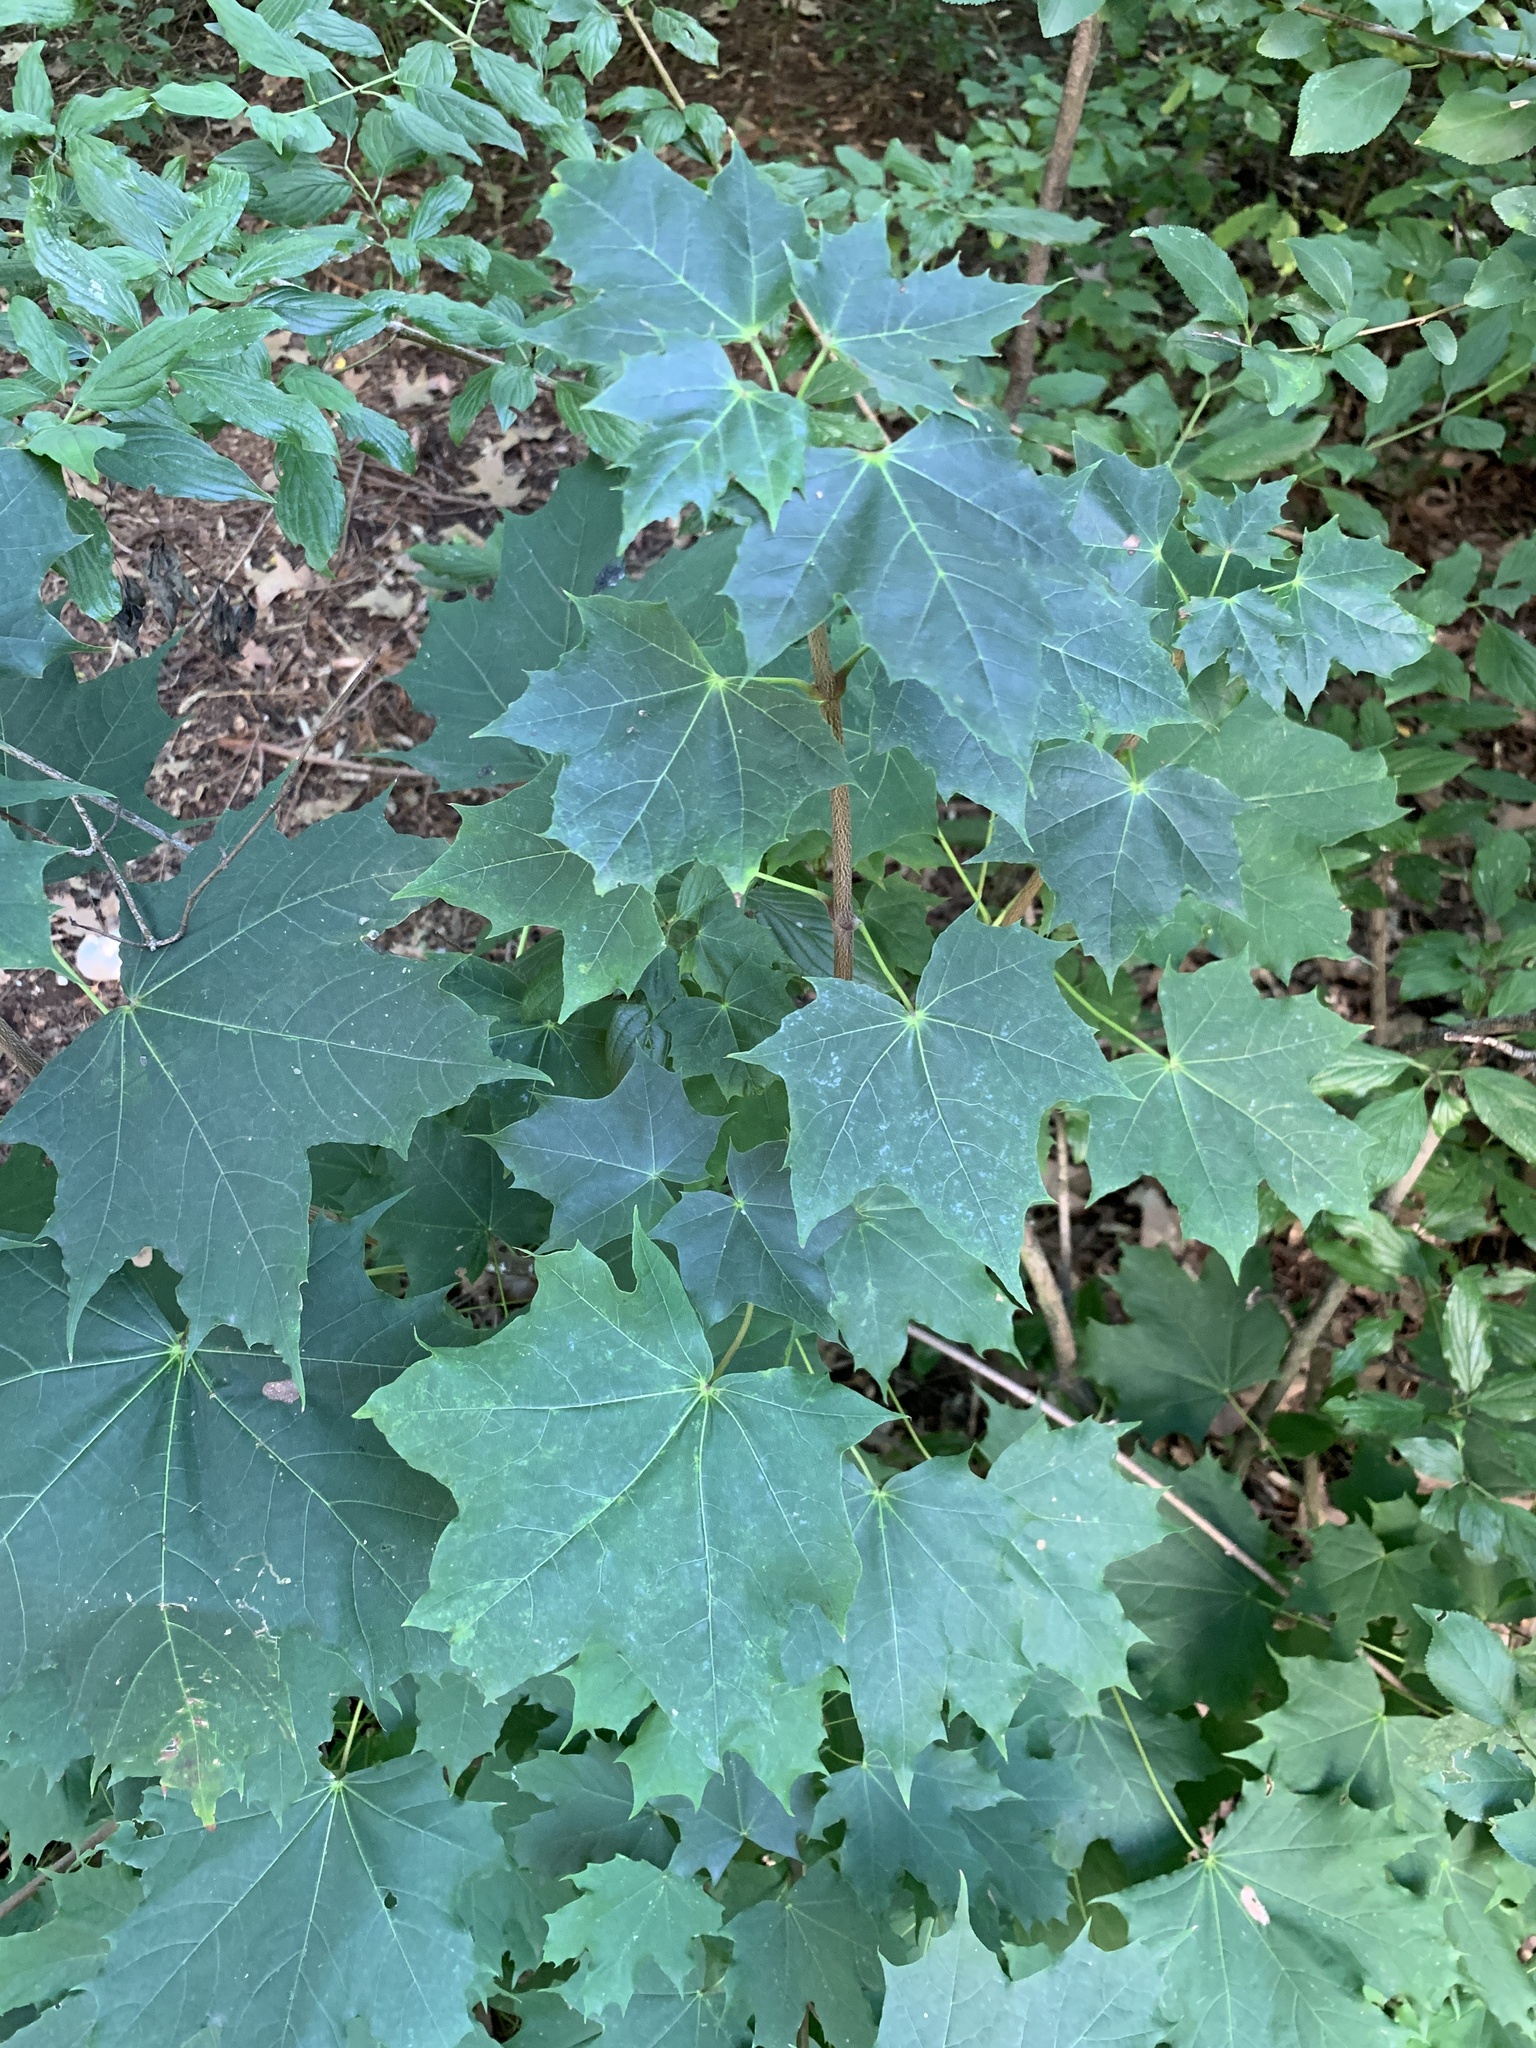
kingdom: Plantae
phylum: Tracheophyta
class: Magnoliopsida
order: Sapindales
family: Sapindaceae
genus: Acer
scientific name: Acer platanoides
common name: Norway maple
